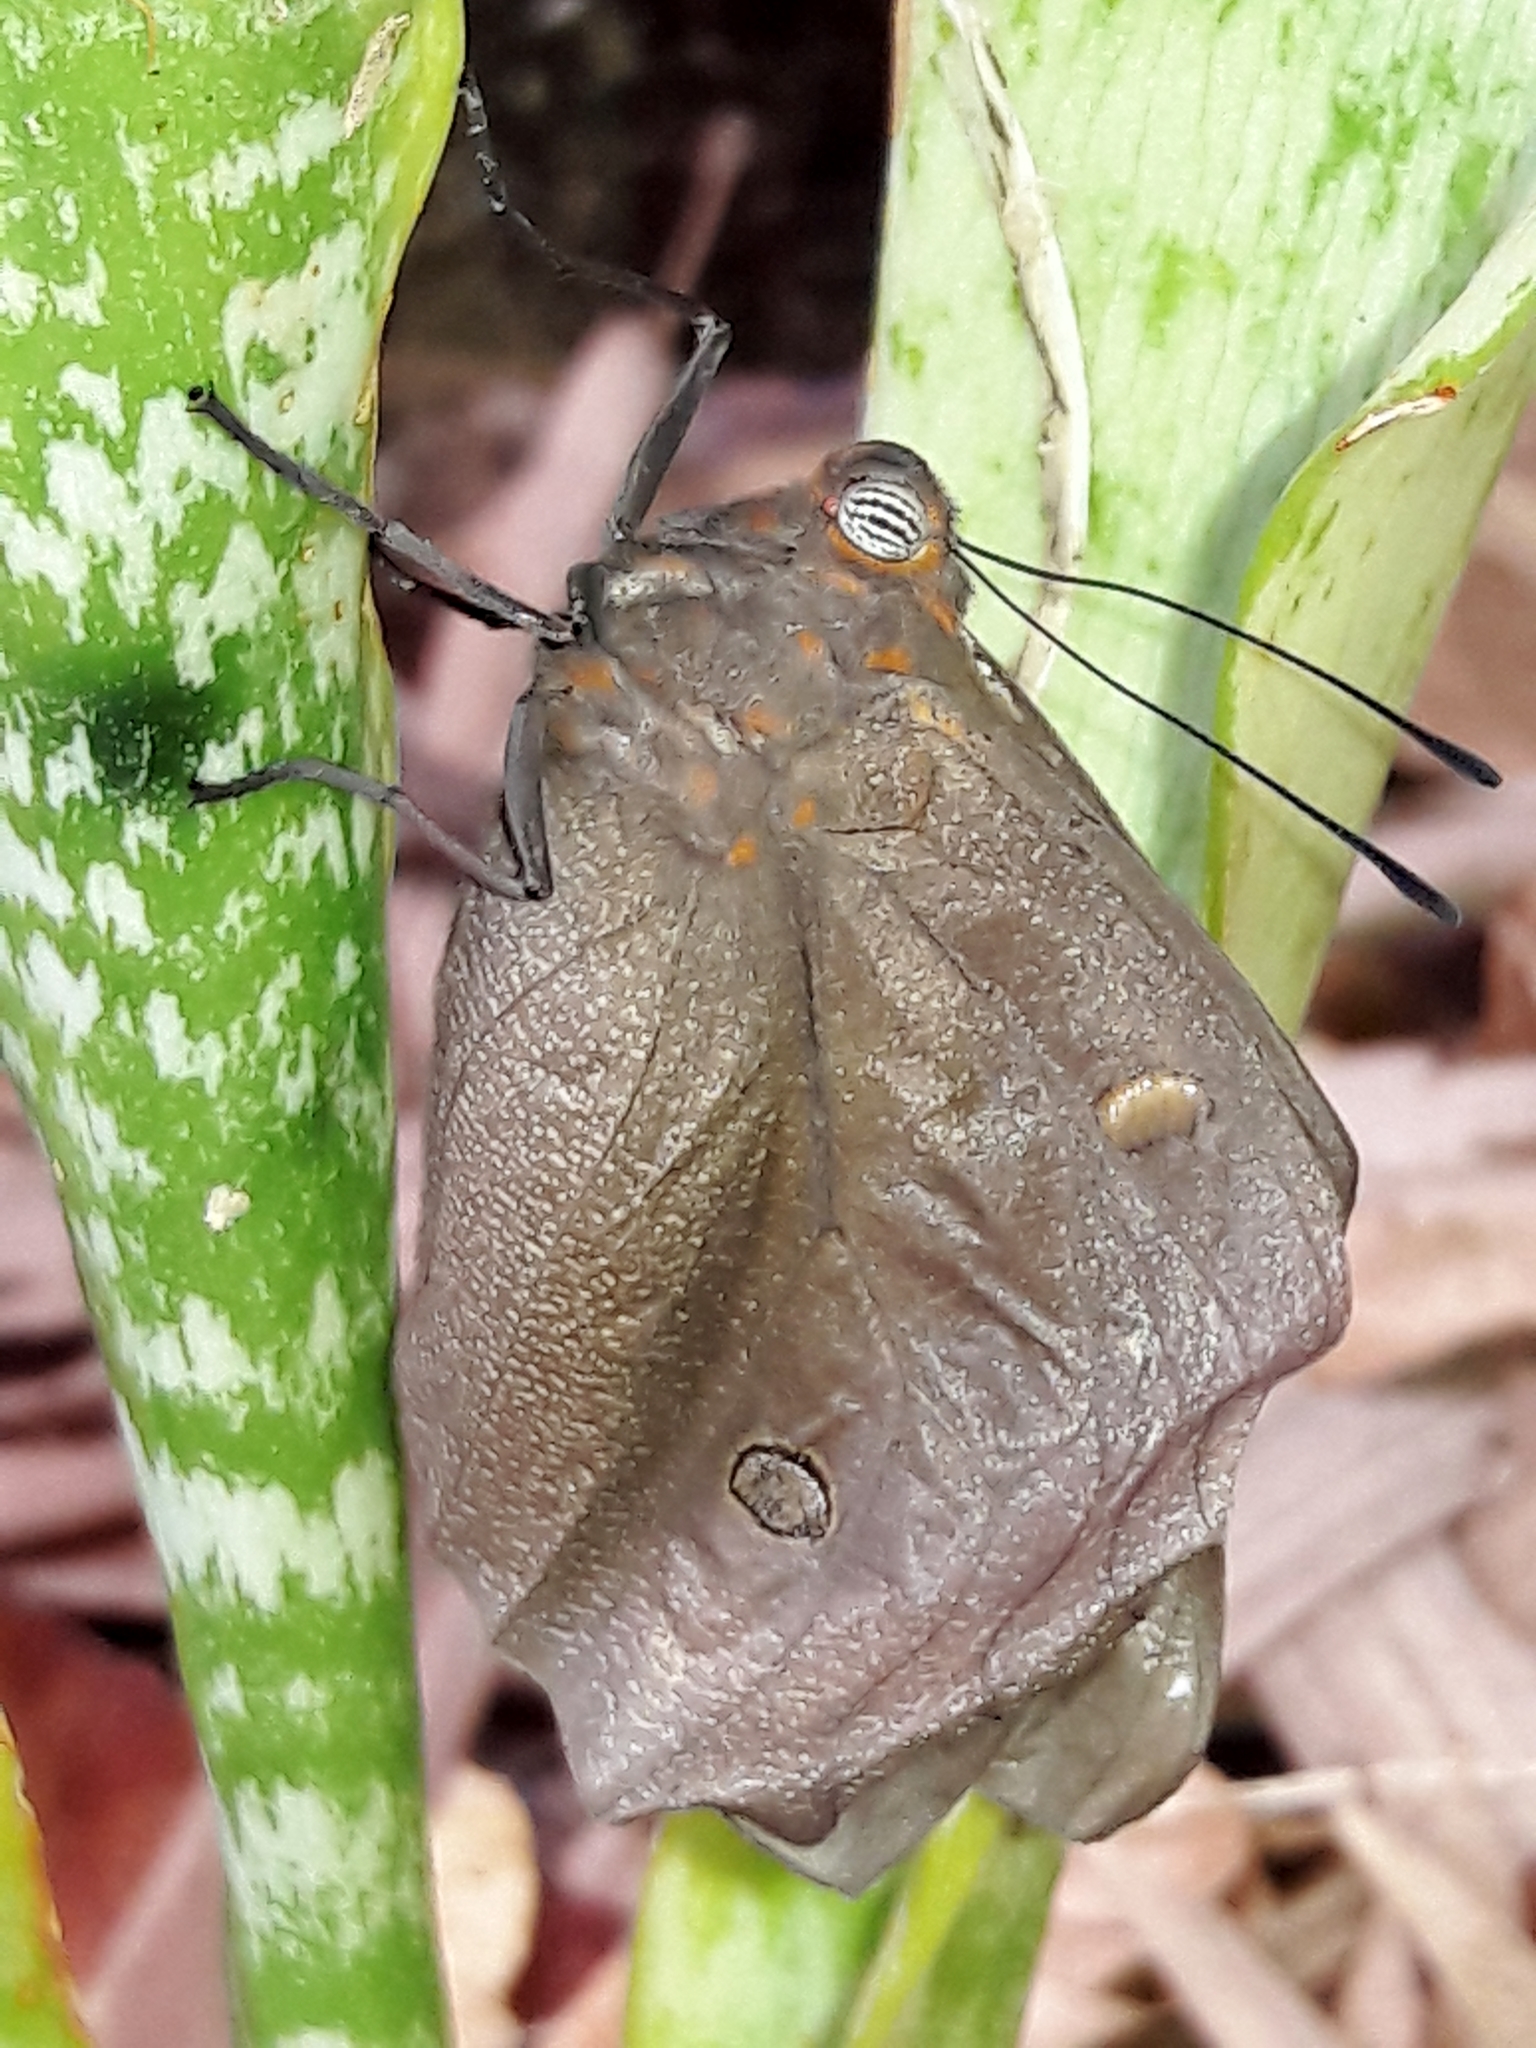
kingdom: Animalia
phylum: Arthropoda
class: Insecta
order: Lepidoptera
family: Nymphalidae
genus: Brassolis
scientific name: Brassolis sophorae
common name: Coconut caterpillar
